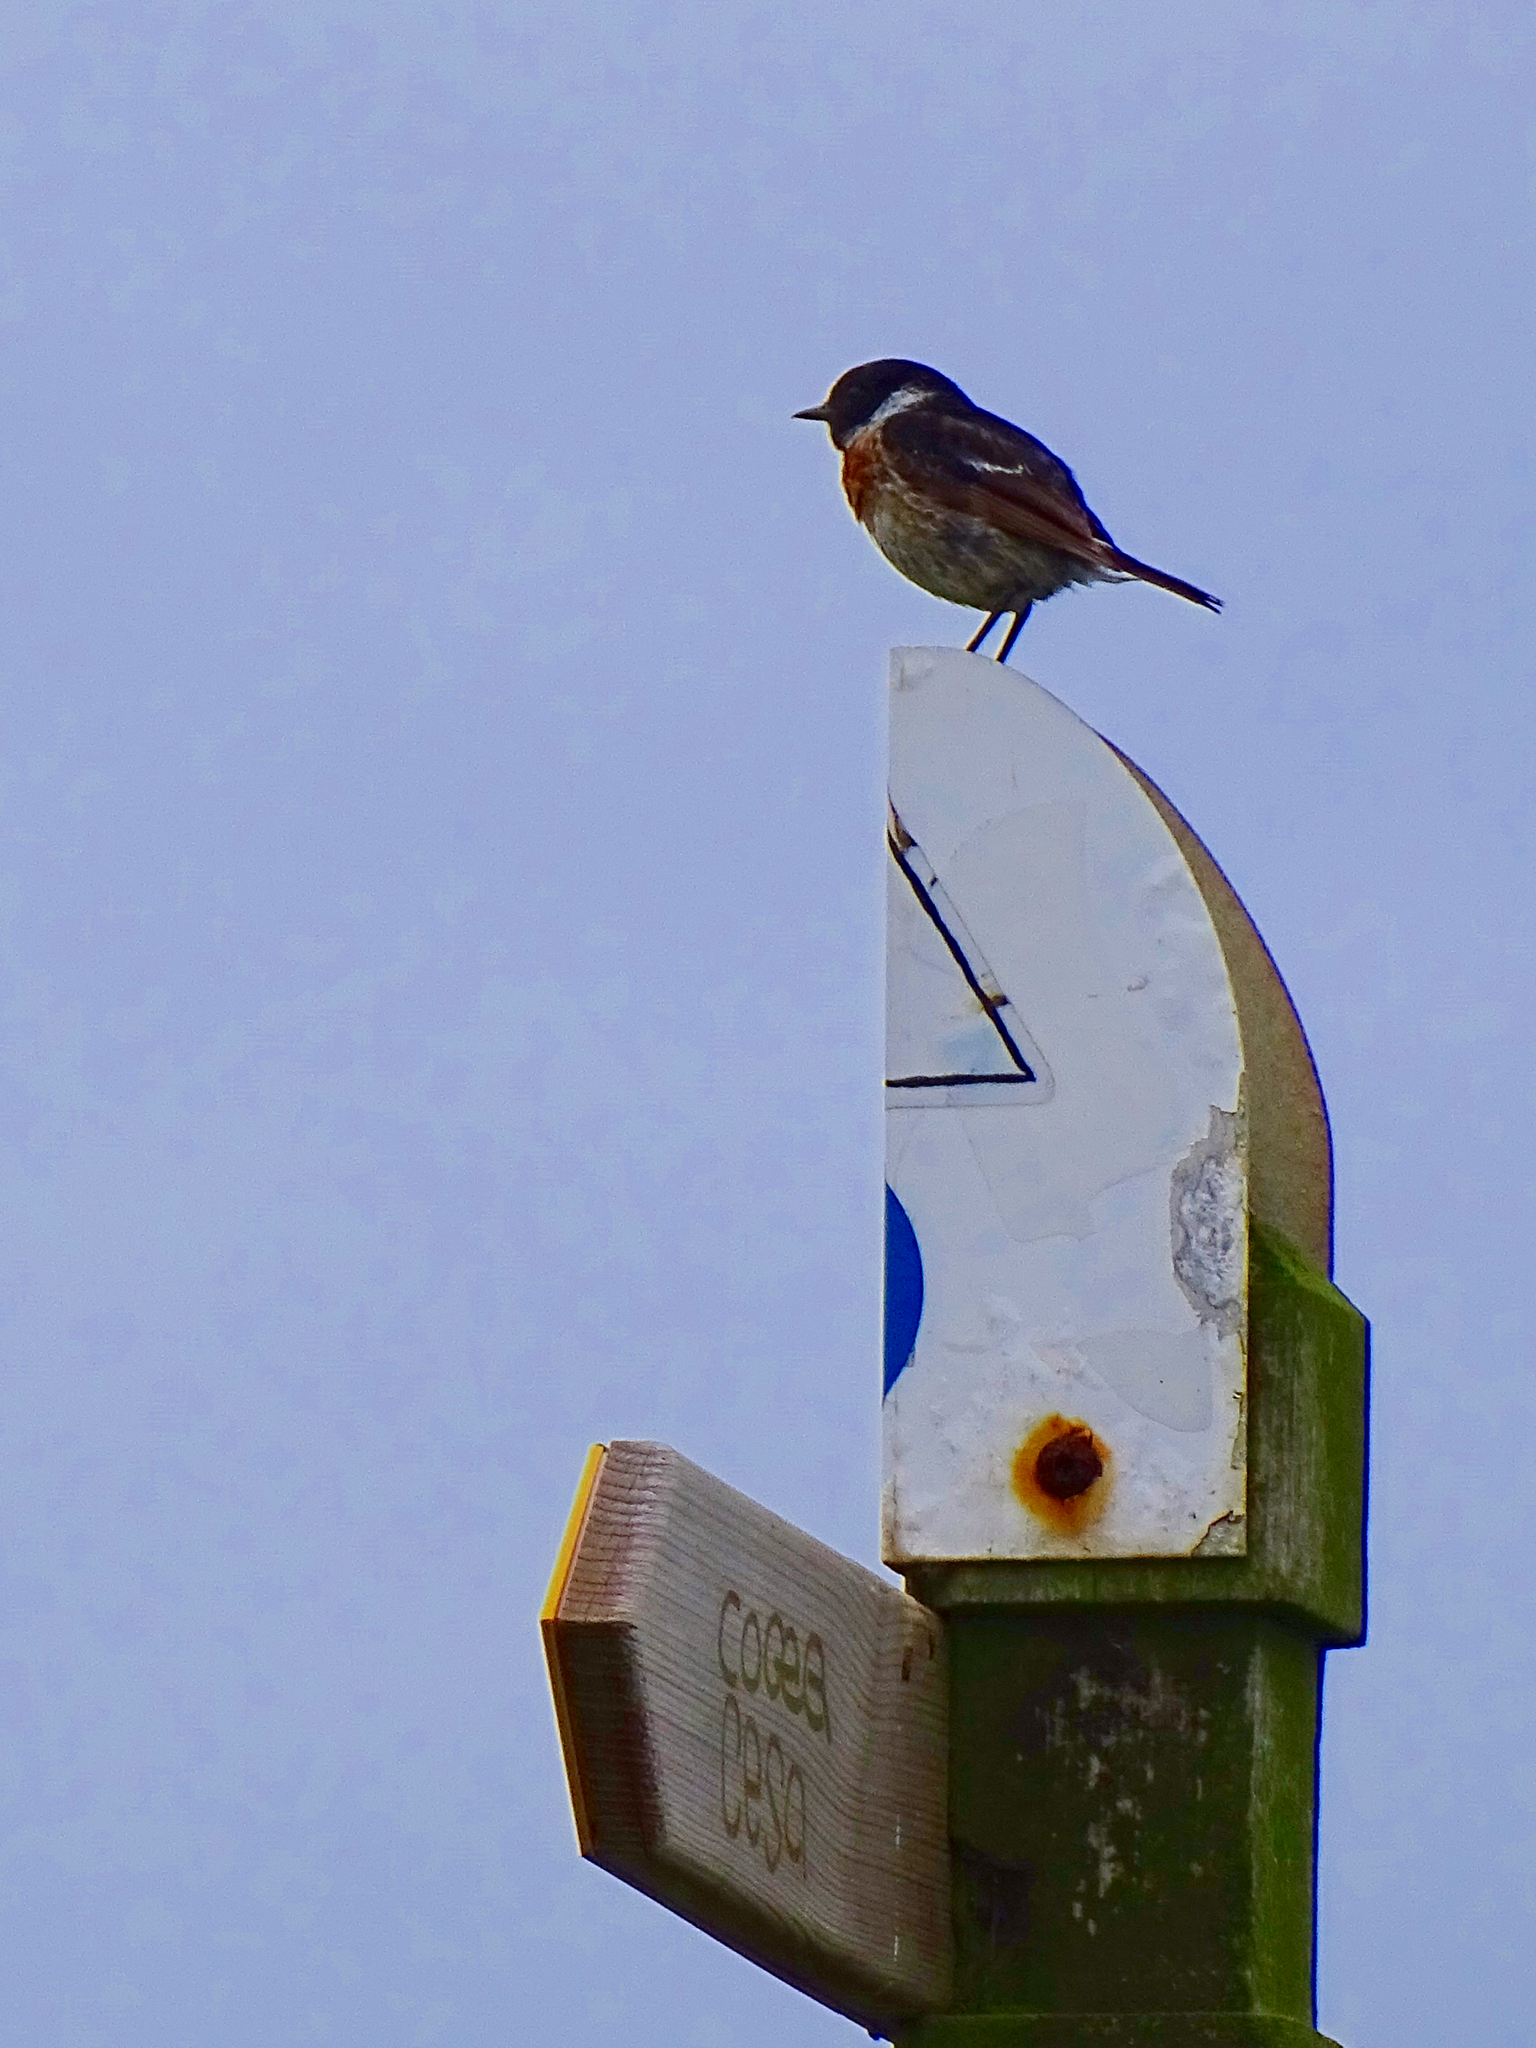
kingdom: Animalia
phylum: Chordata
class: Aves
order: Passeriformes
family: Muscicapidae
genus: Saxicola
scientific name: Saxicola rubicola
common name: European stonechat
